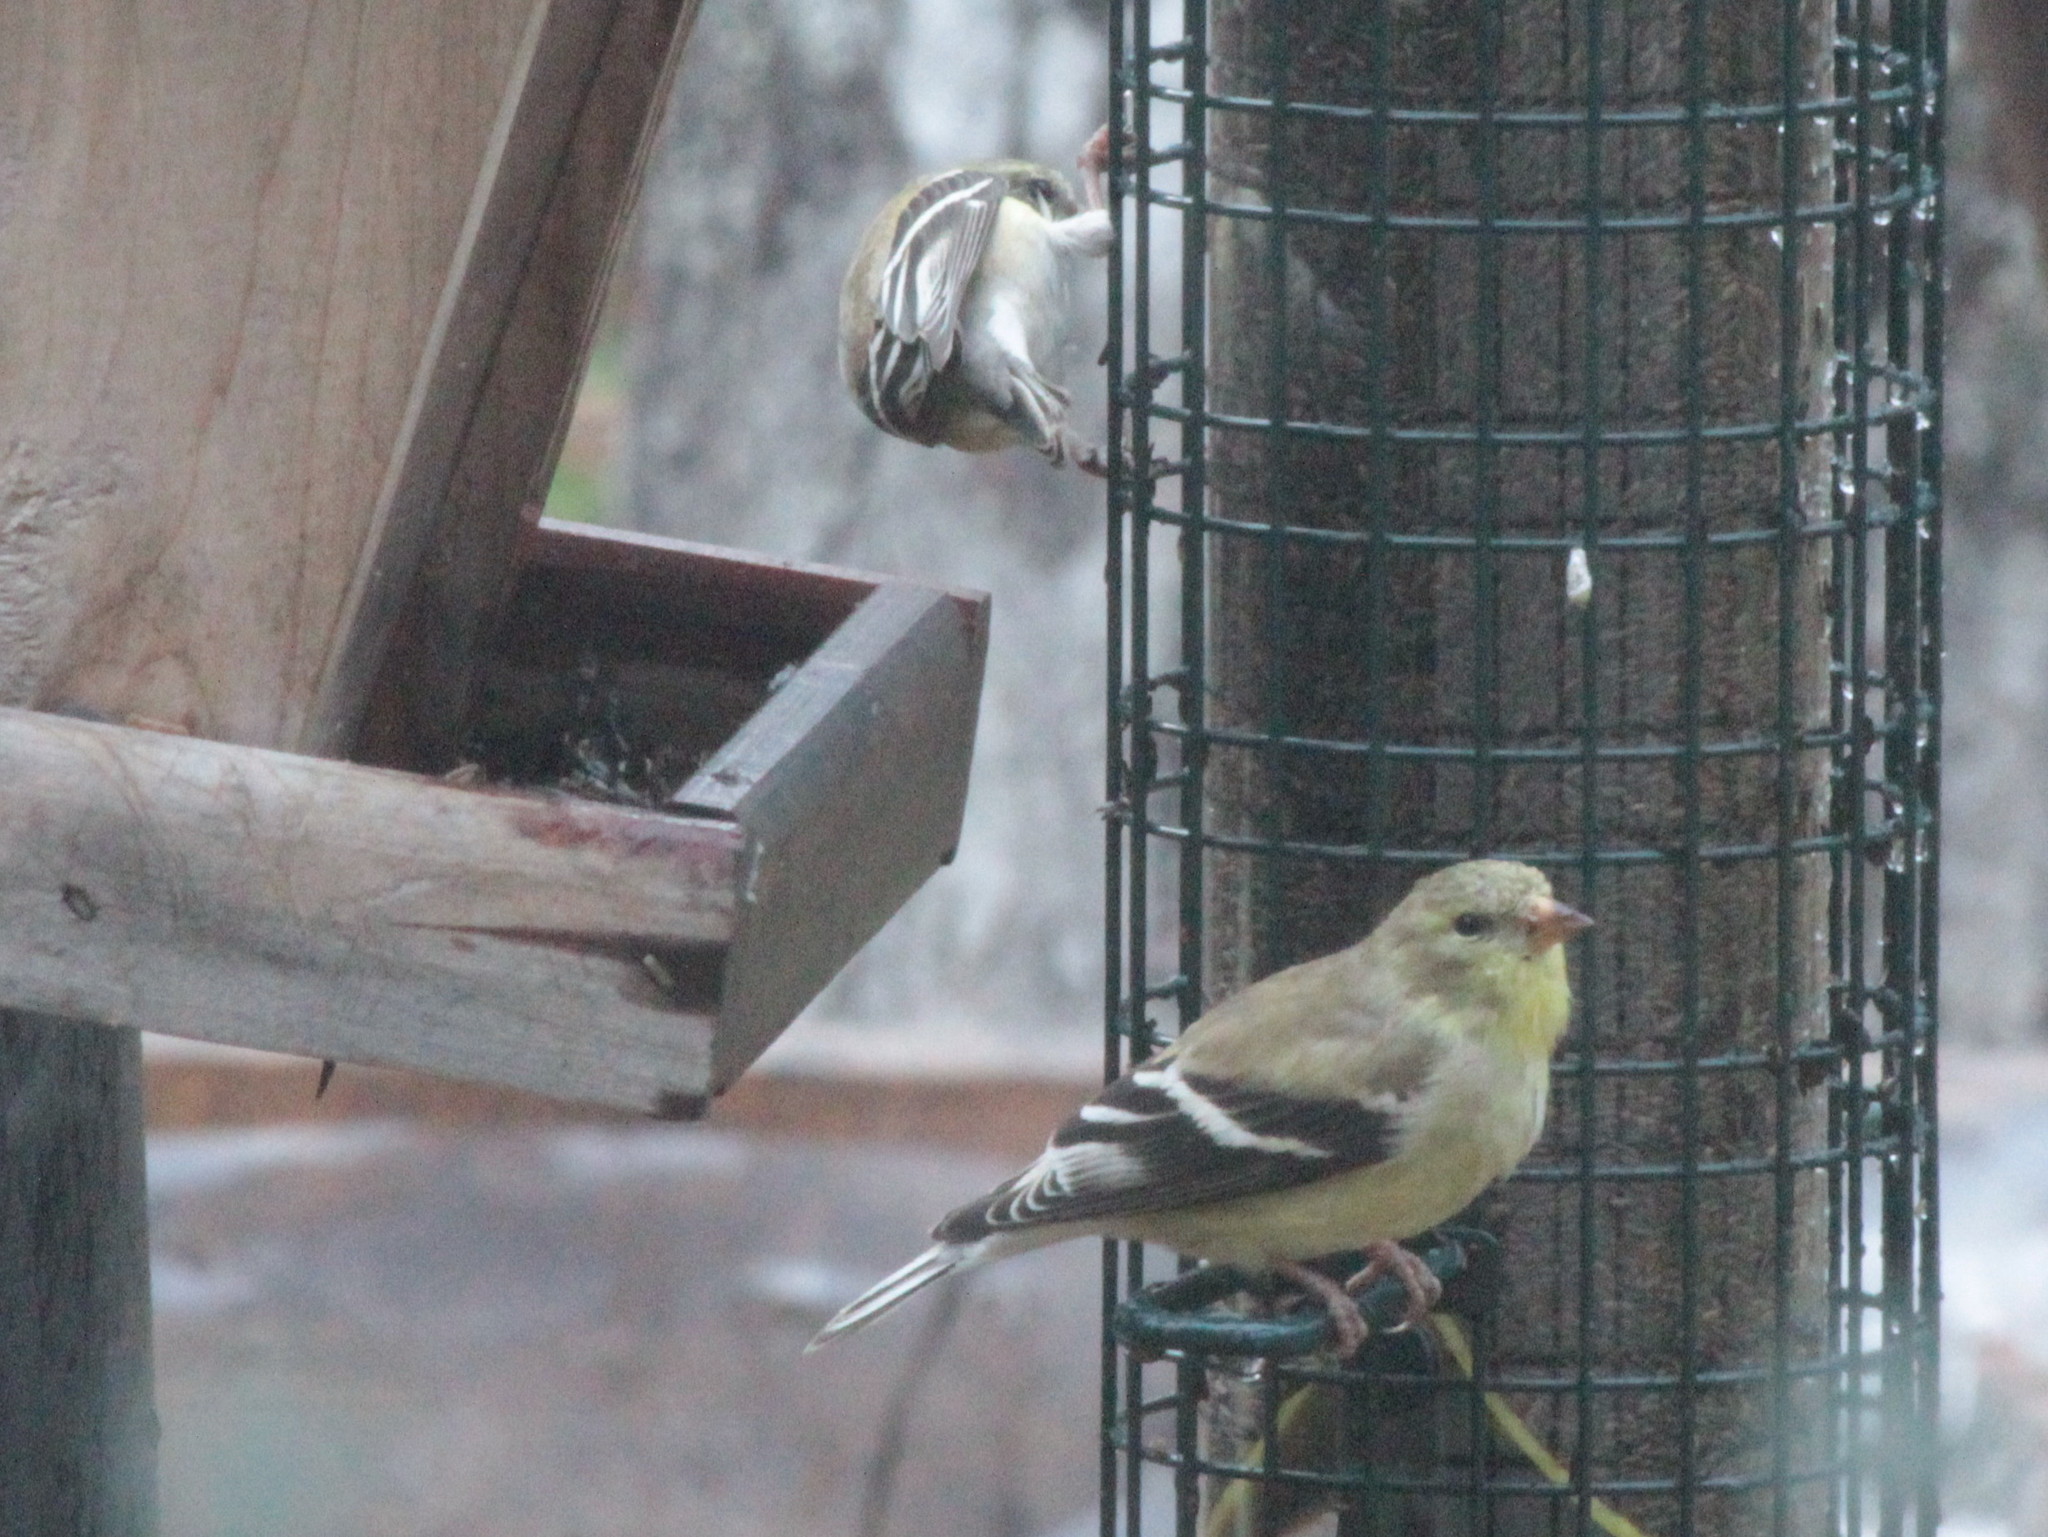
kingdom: Animalia
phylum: Chordata
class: Aves
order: Passeriformes
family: Fringillidae
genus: Spinus
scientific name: Spinus tristis
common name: American goldfinch
